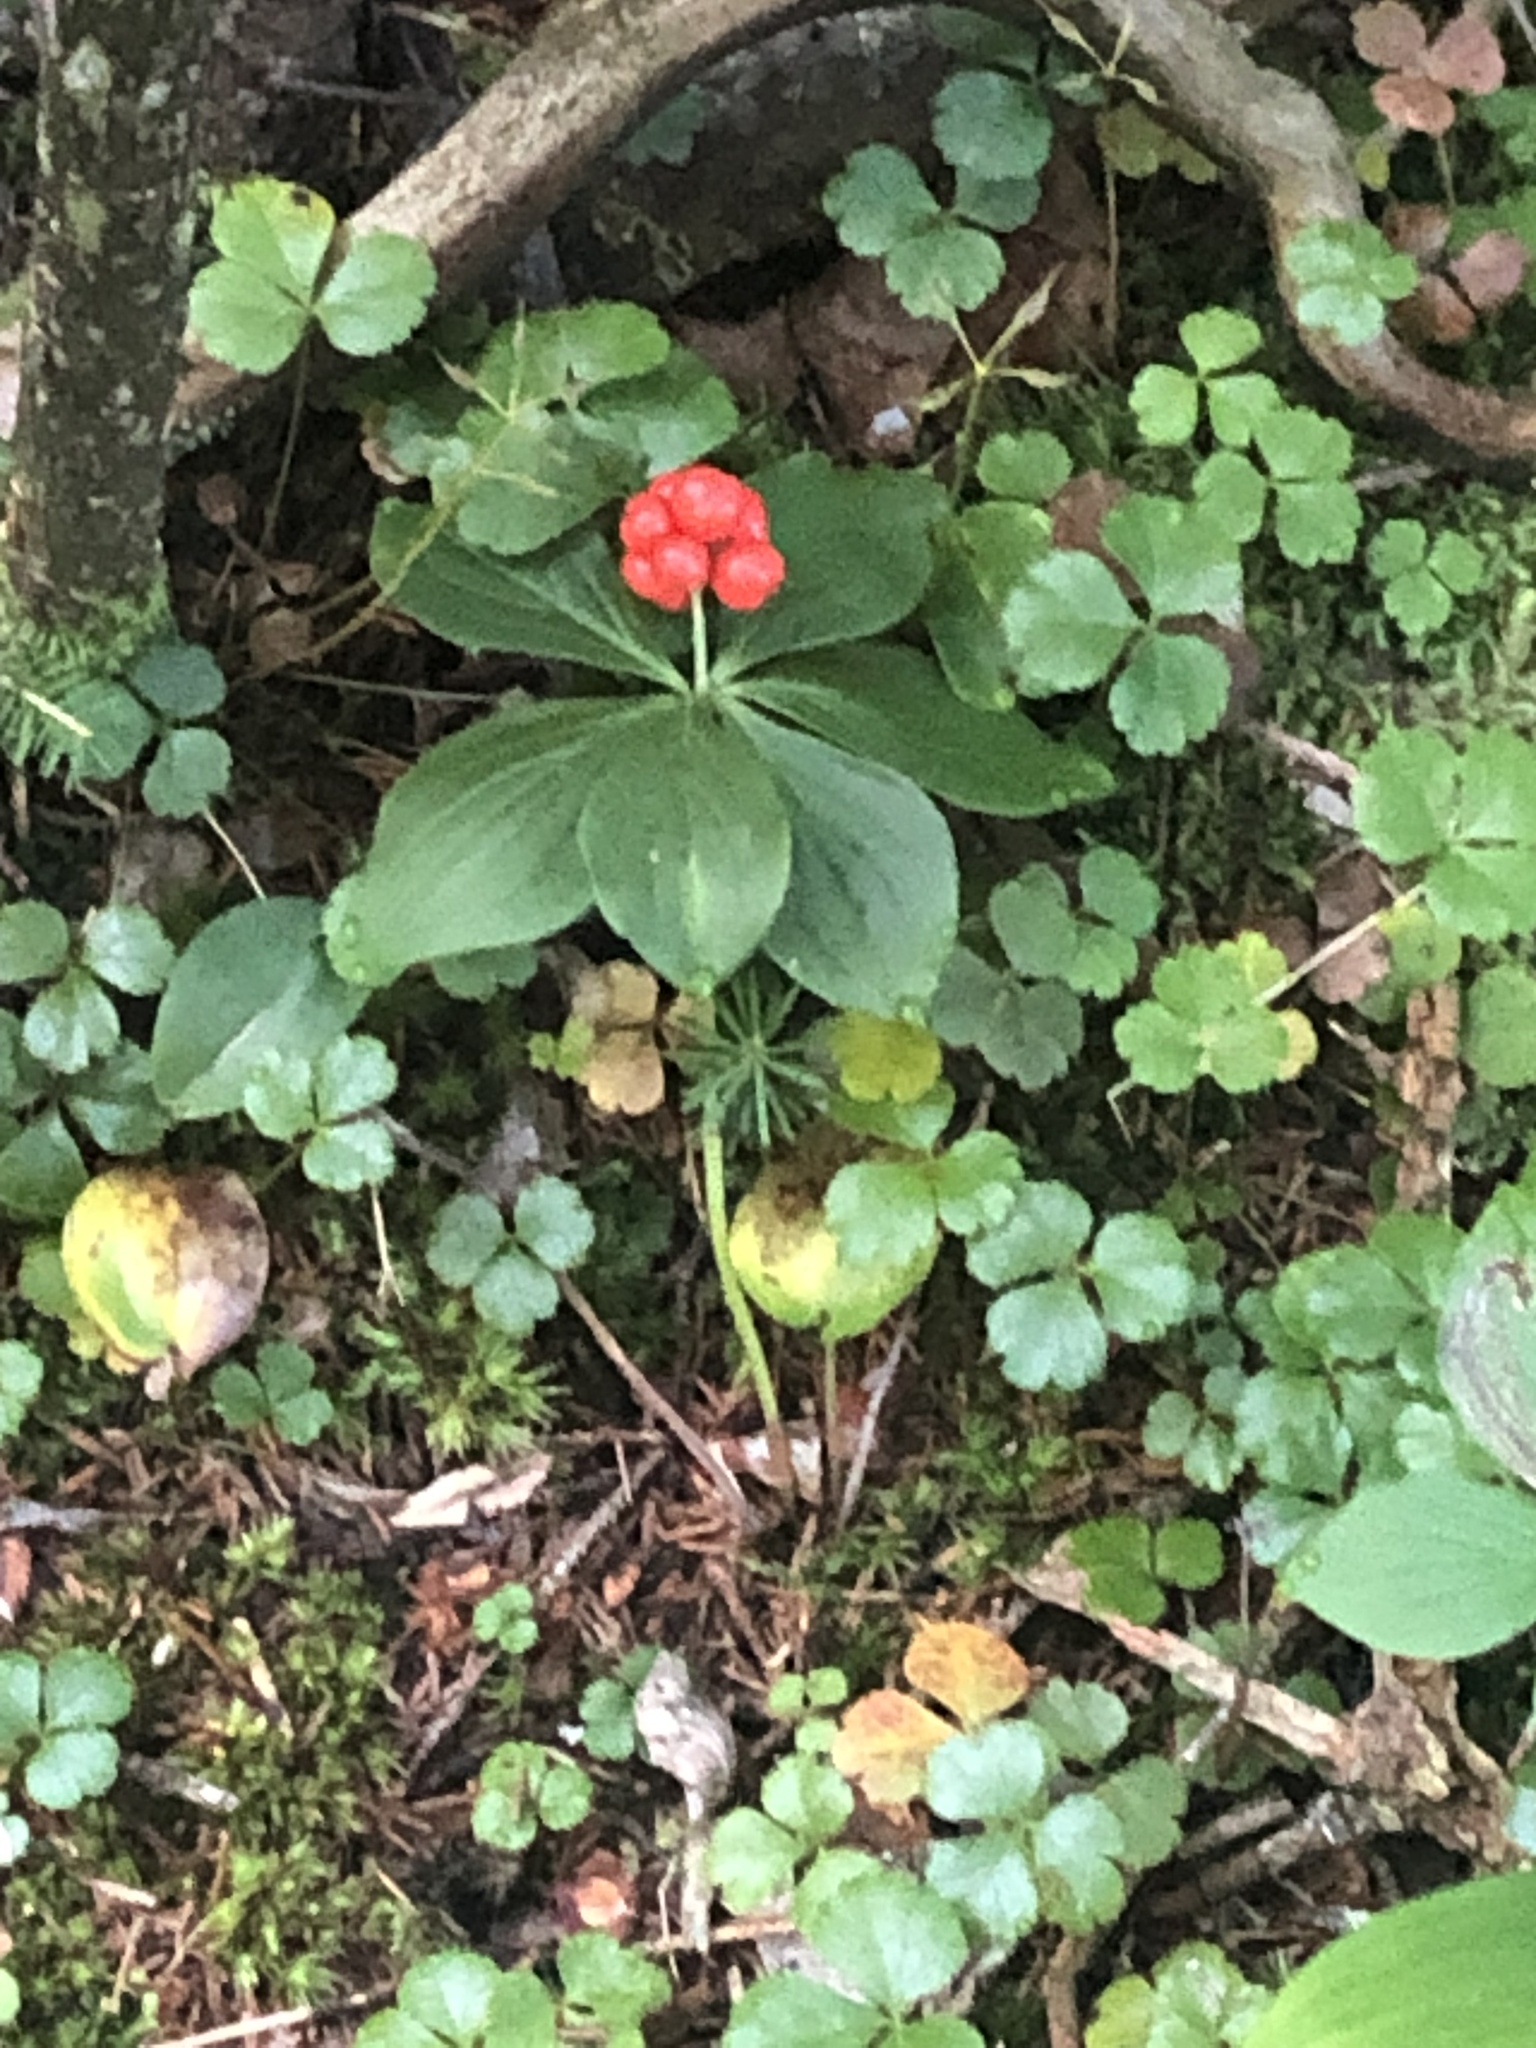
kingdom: Plantae
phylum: Tracheophyta
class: Magnoliopsida
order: Cornales
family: Cornaceae
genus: Cornus
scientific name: Cornus canadensis
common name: Creeping dogwood
